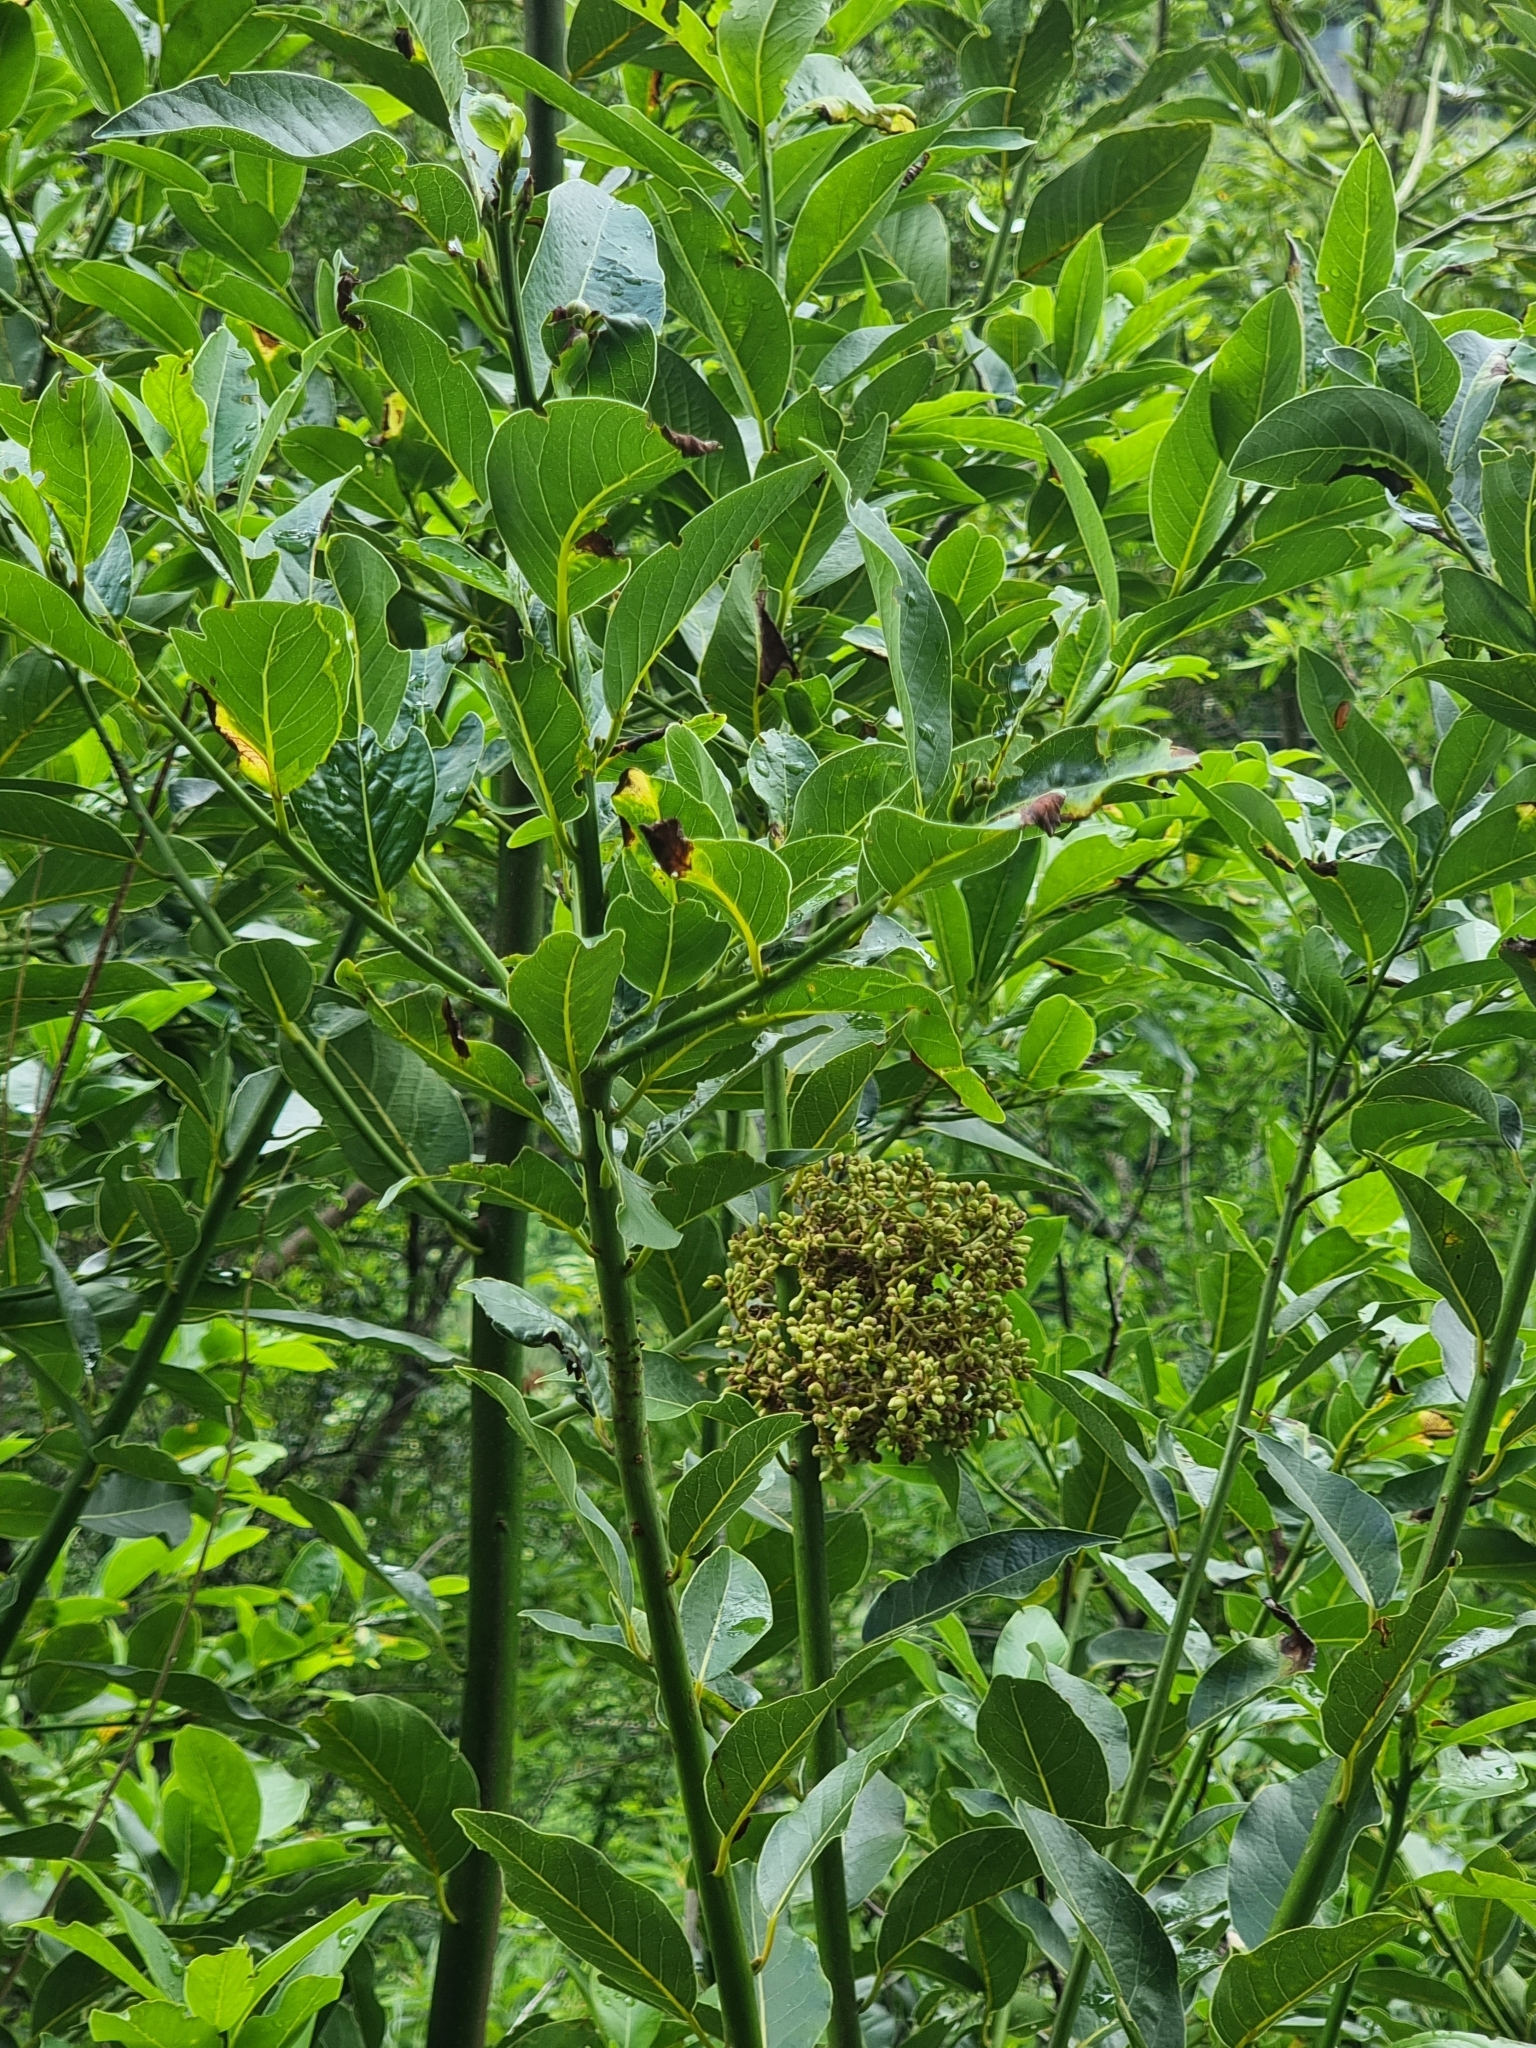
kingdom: Plantae
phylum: Tracheophyta
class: Magnoliopsida
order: Laurales
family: Lauraceae
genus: Laurus
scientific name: Laurus novocanariensis
